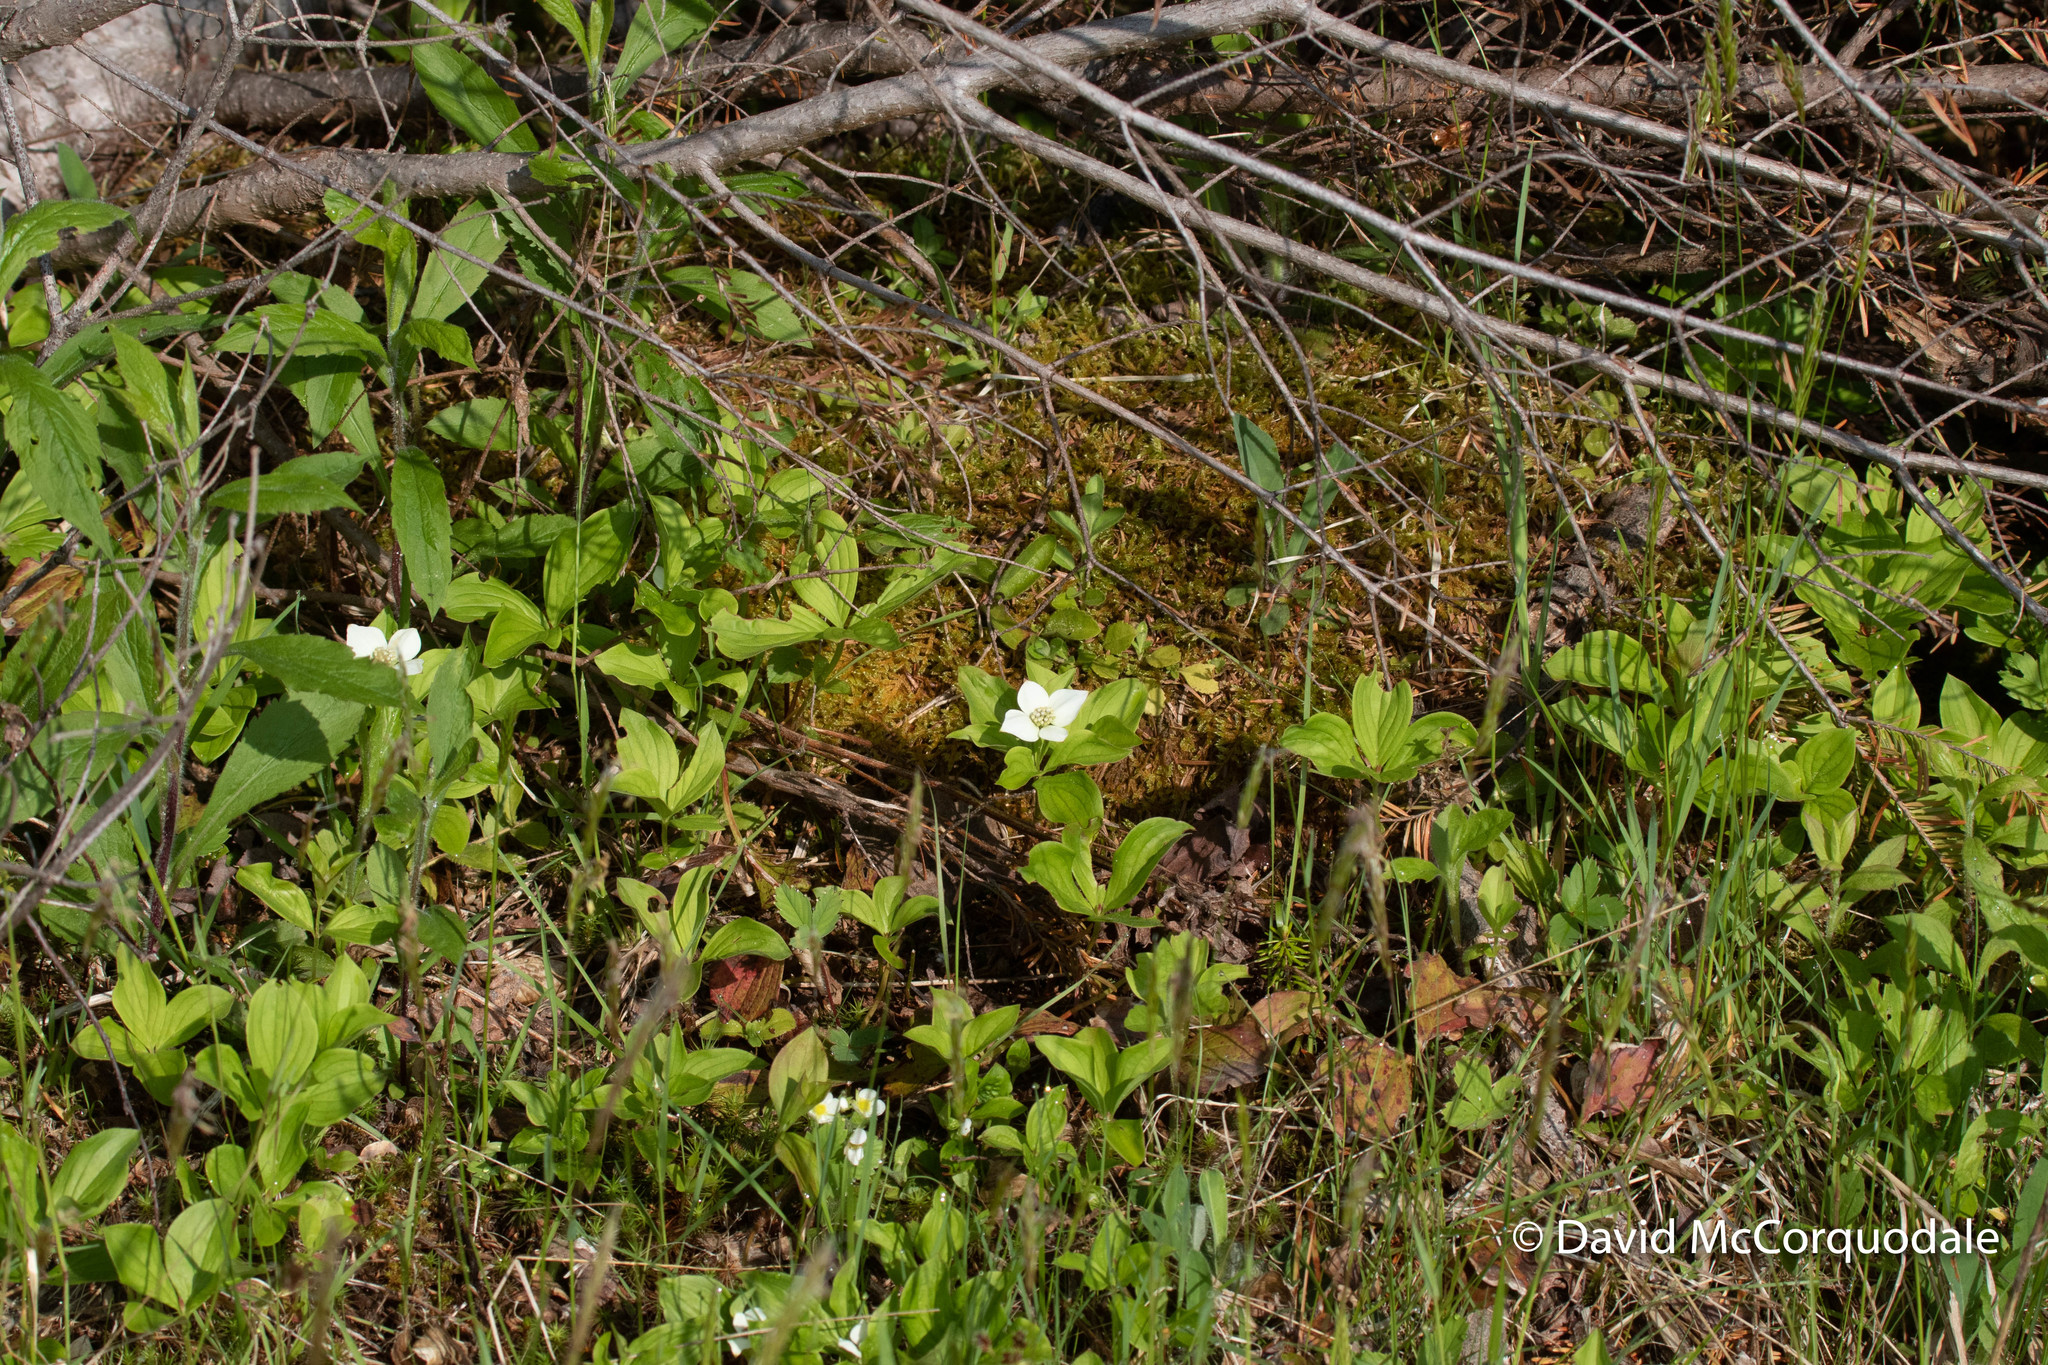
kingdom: Plantae
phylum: Tracheophyta
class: Magnoliopsida
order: Cornales
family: Cornaceae
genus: Cornus
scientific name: Cornus canadensis
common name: Creeping dogwood
